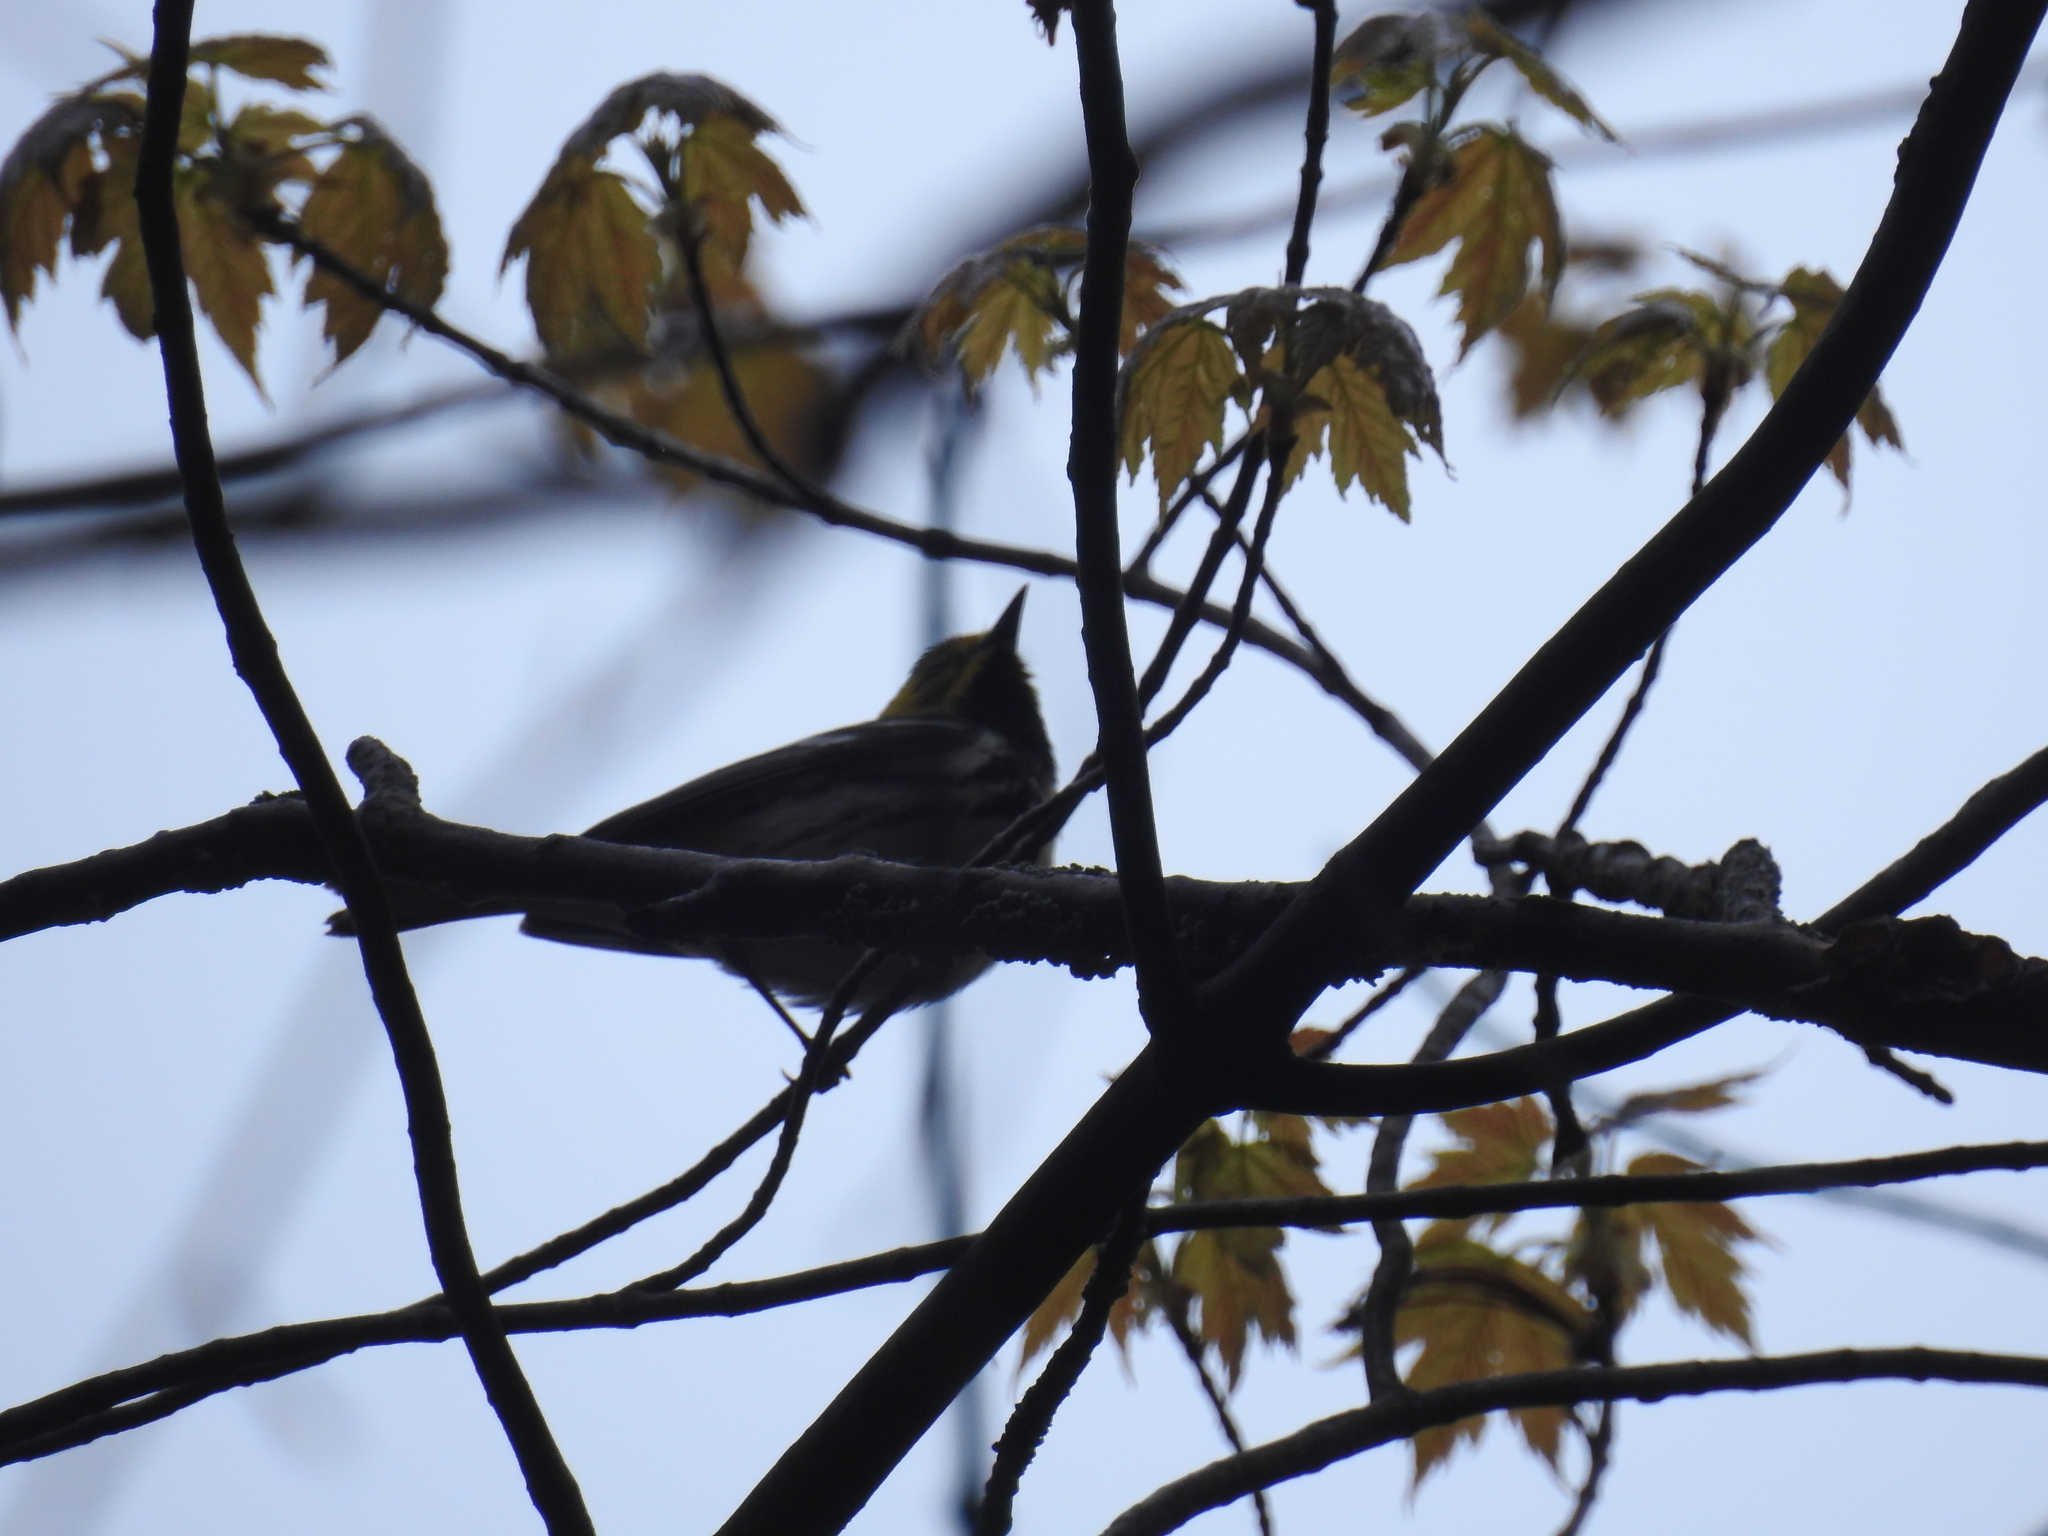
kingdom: Animalia
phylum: Chordata
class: Aves
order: Passeriformes
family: Parulidae
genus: Setophaga
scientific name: Setophaga virens
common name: Black-throated green warbler
